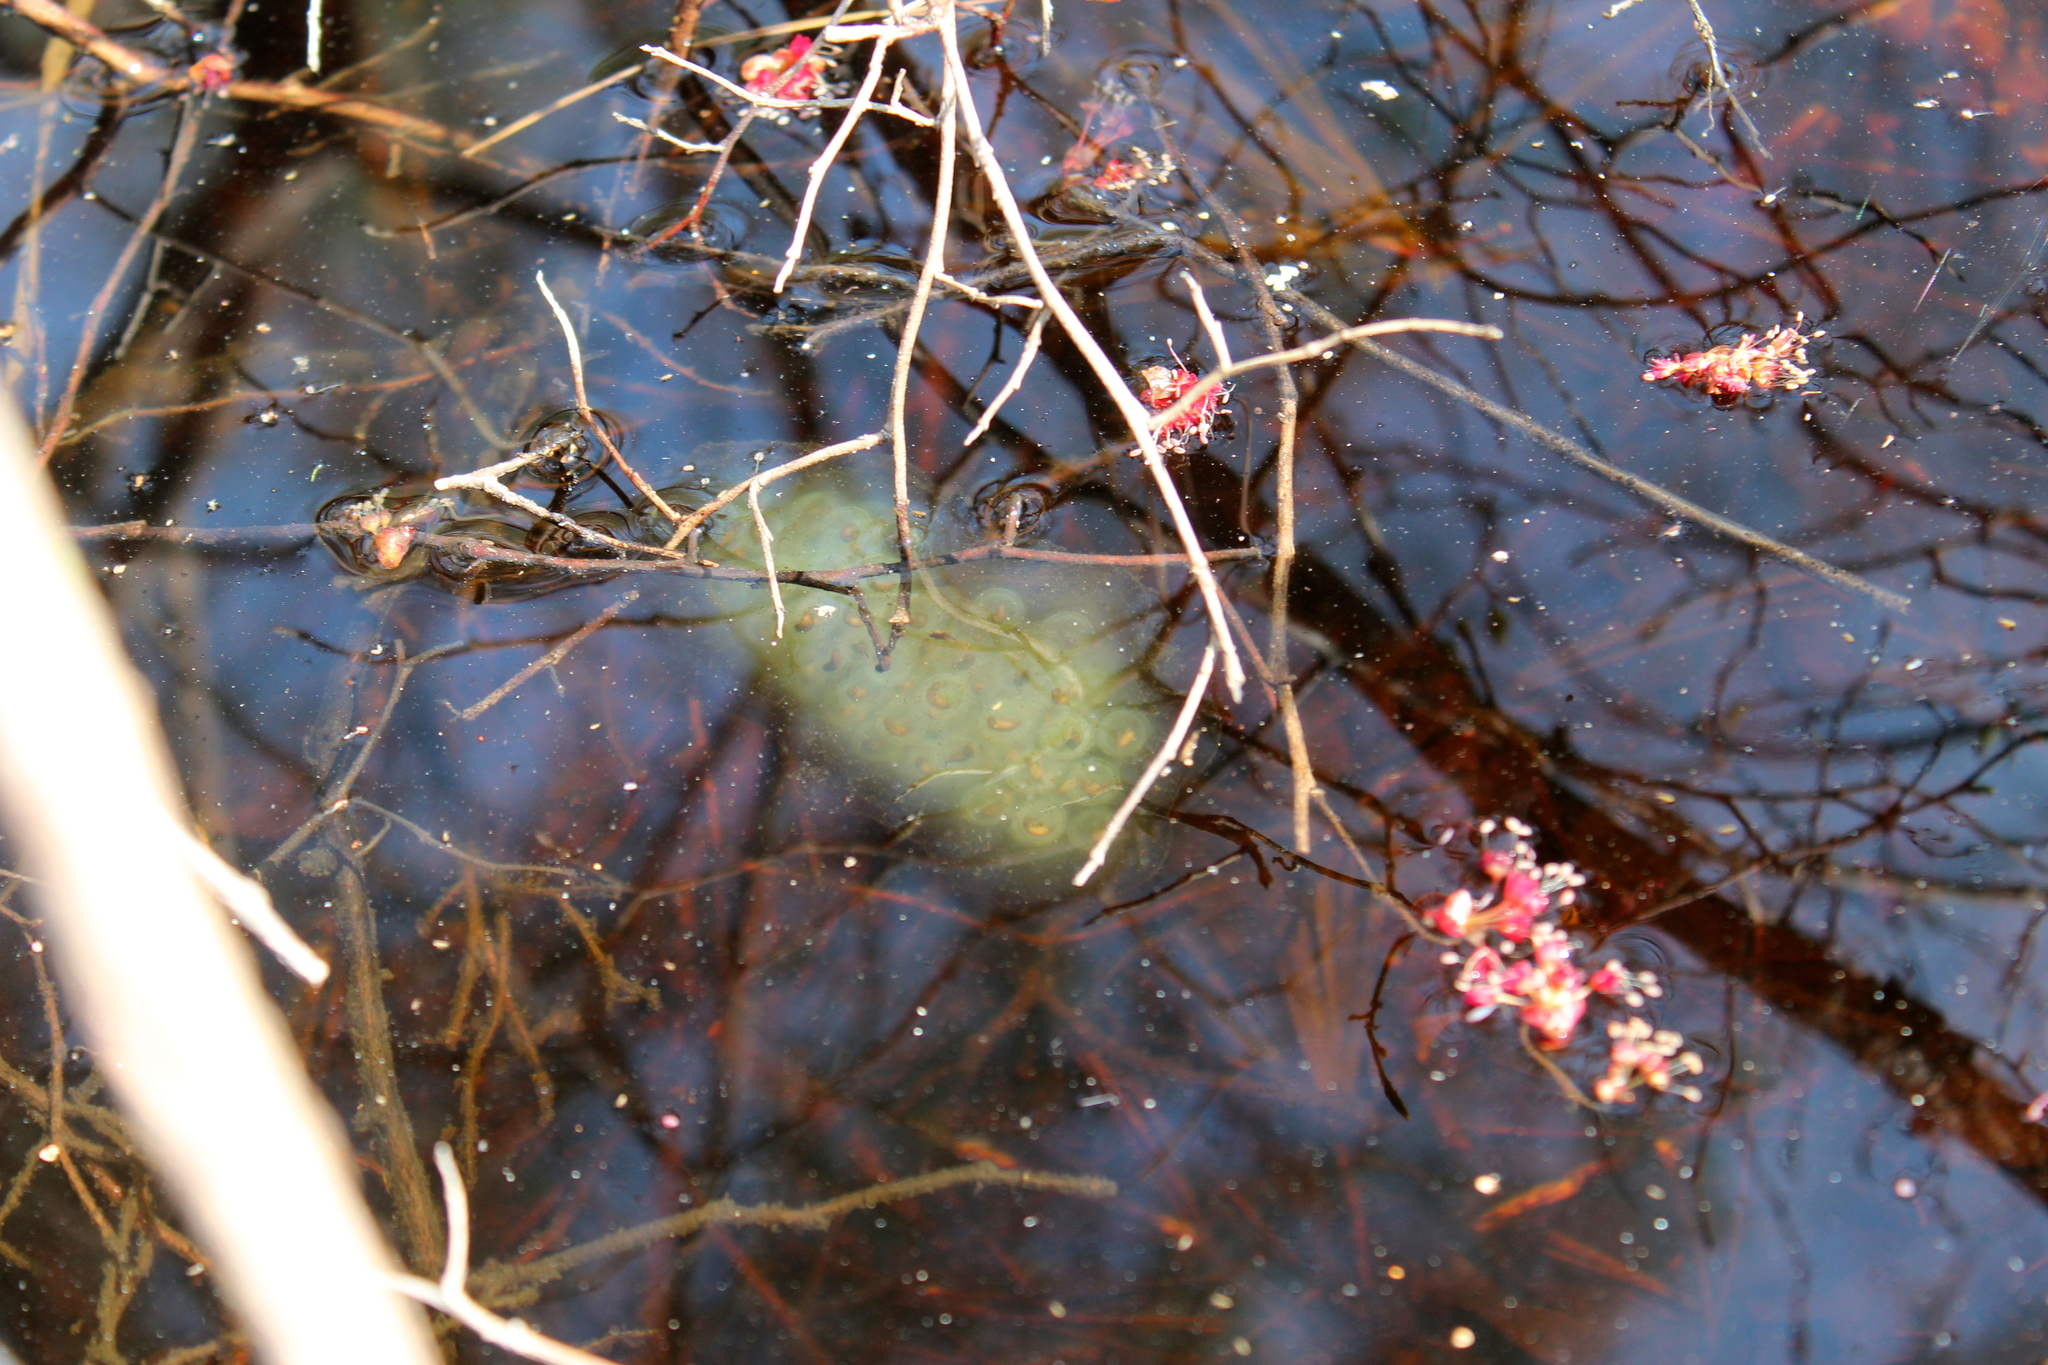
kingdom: Animalia
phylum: Chordata
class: Amphibia
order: Caudata
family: Ambystomatidae
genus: Ambystoma
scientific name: Ambystoma maculatum
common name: Spotted salamander
